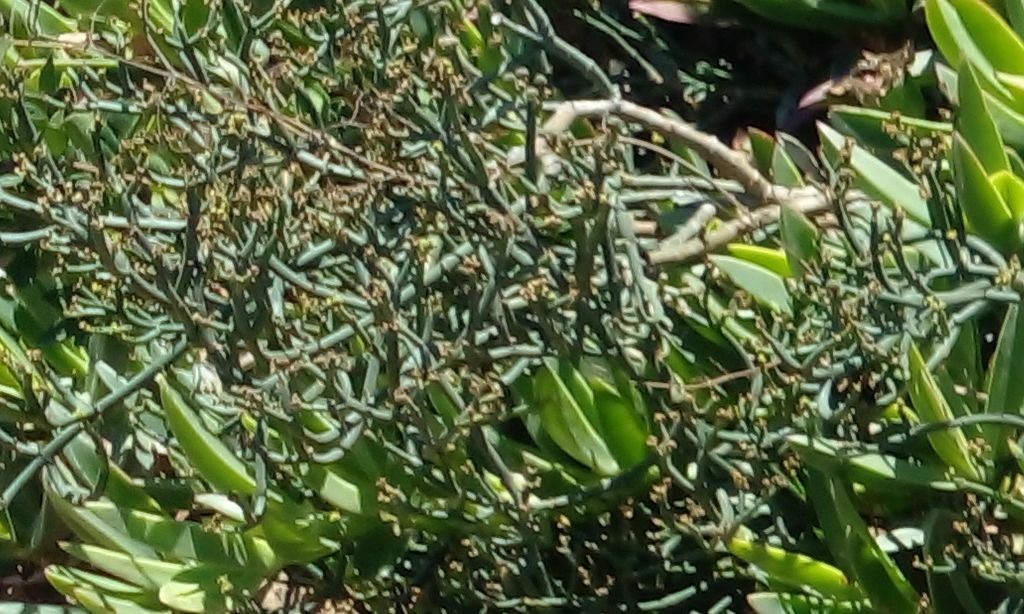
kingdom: Plantae
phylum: Tracheophyta
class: Magnoliopsida
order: Malpighiales
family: Euphorbiaceae
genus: Euphorbia
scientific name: Euphorbia burmanni
